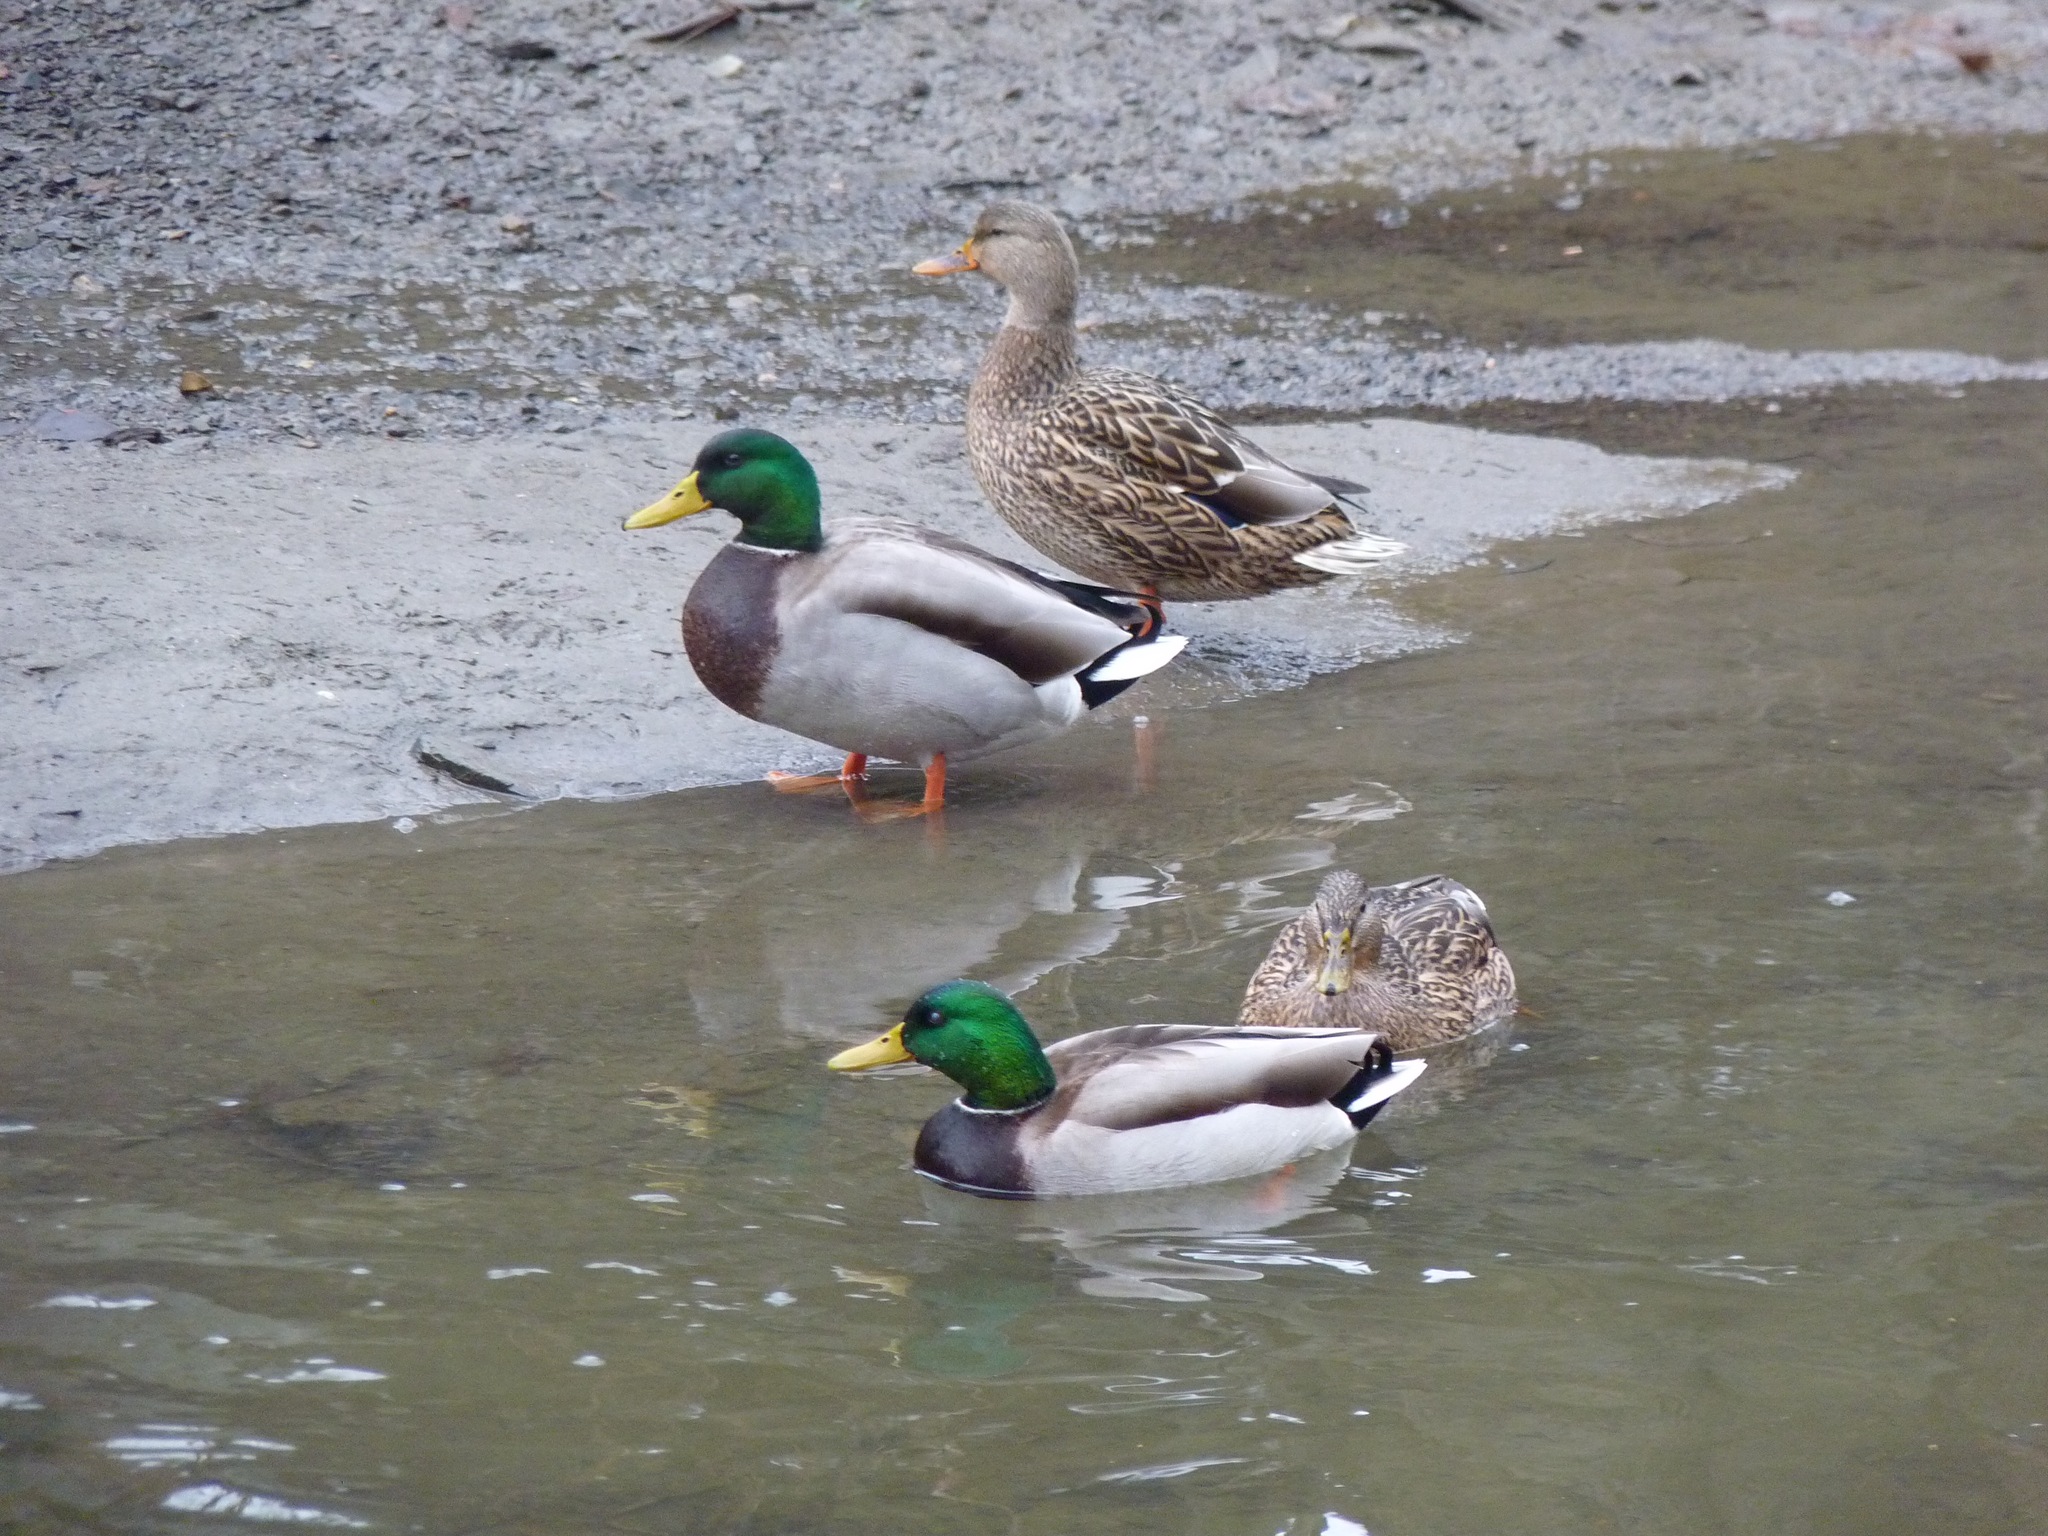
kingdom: Animalia
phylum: Chordata
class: Aves
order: Anseriformes
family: Anatidae
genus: Anas
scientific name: Anas platyrhynchos
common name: Mallard
